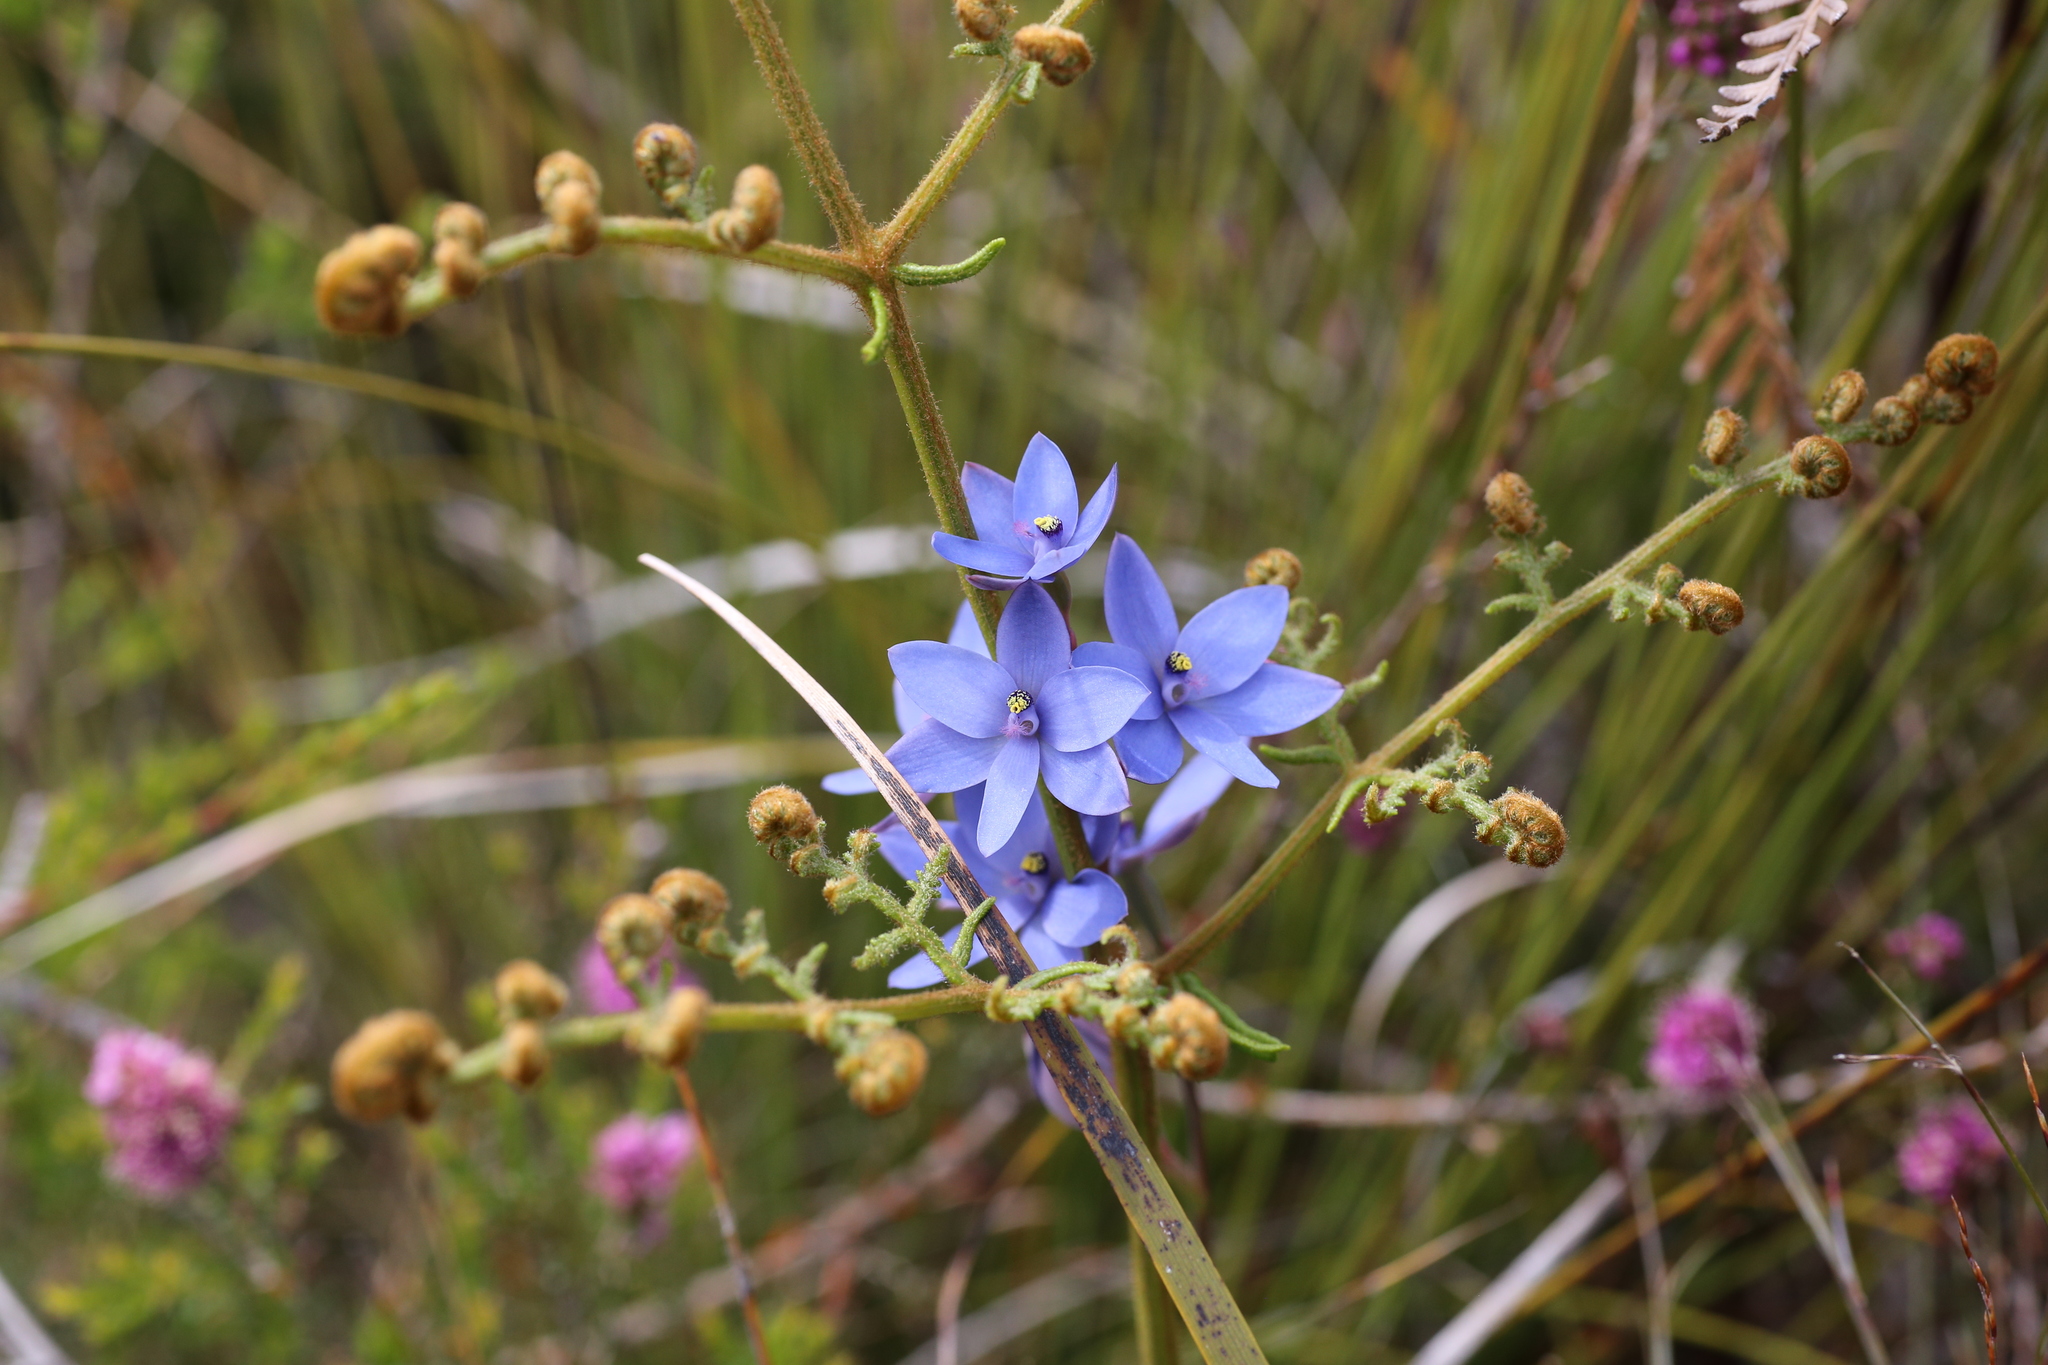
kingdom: Plantae
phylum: Tracheophyta
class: Liliopsida
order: Asparagales
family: Orchidaceae
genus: Thelymitra
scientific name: Thelymitra crinita
